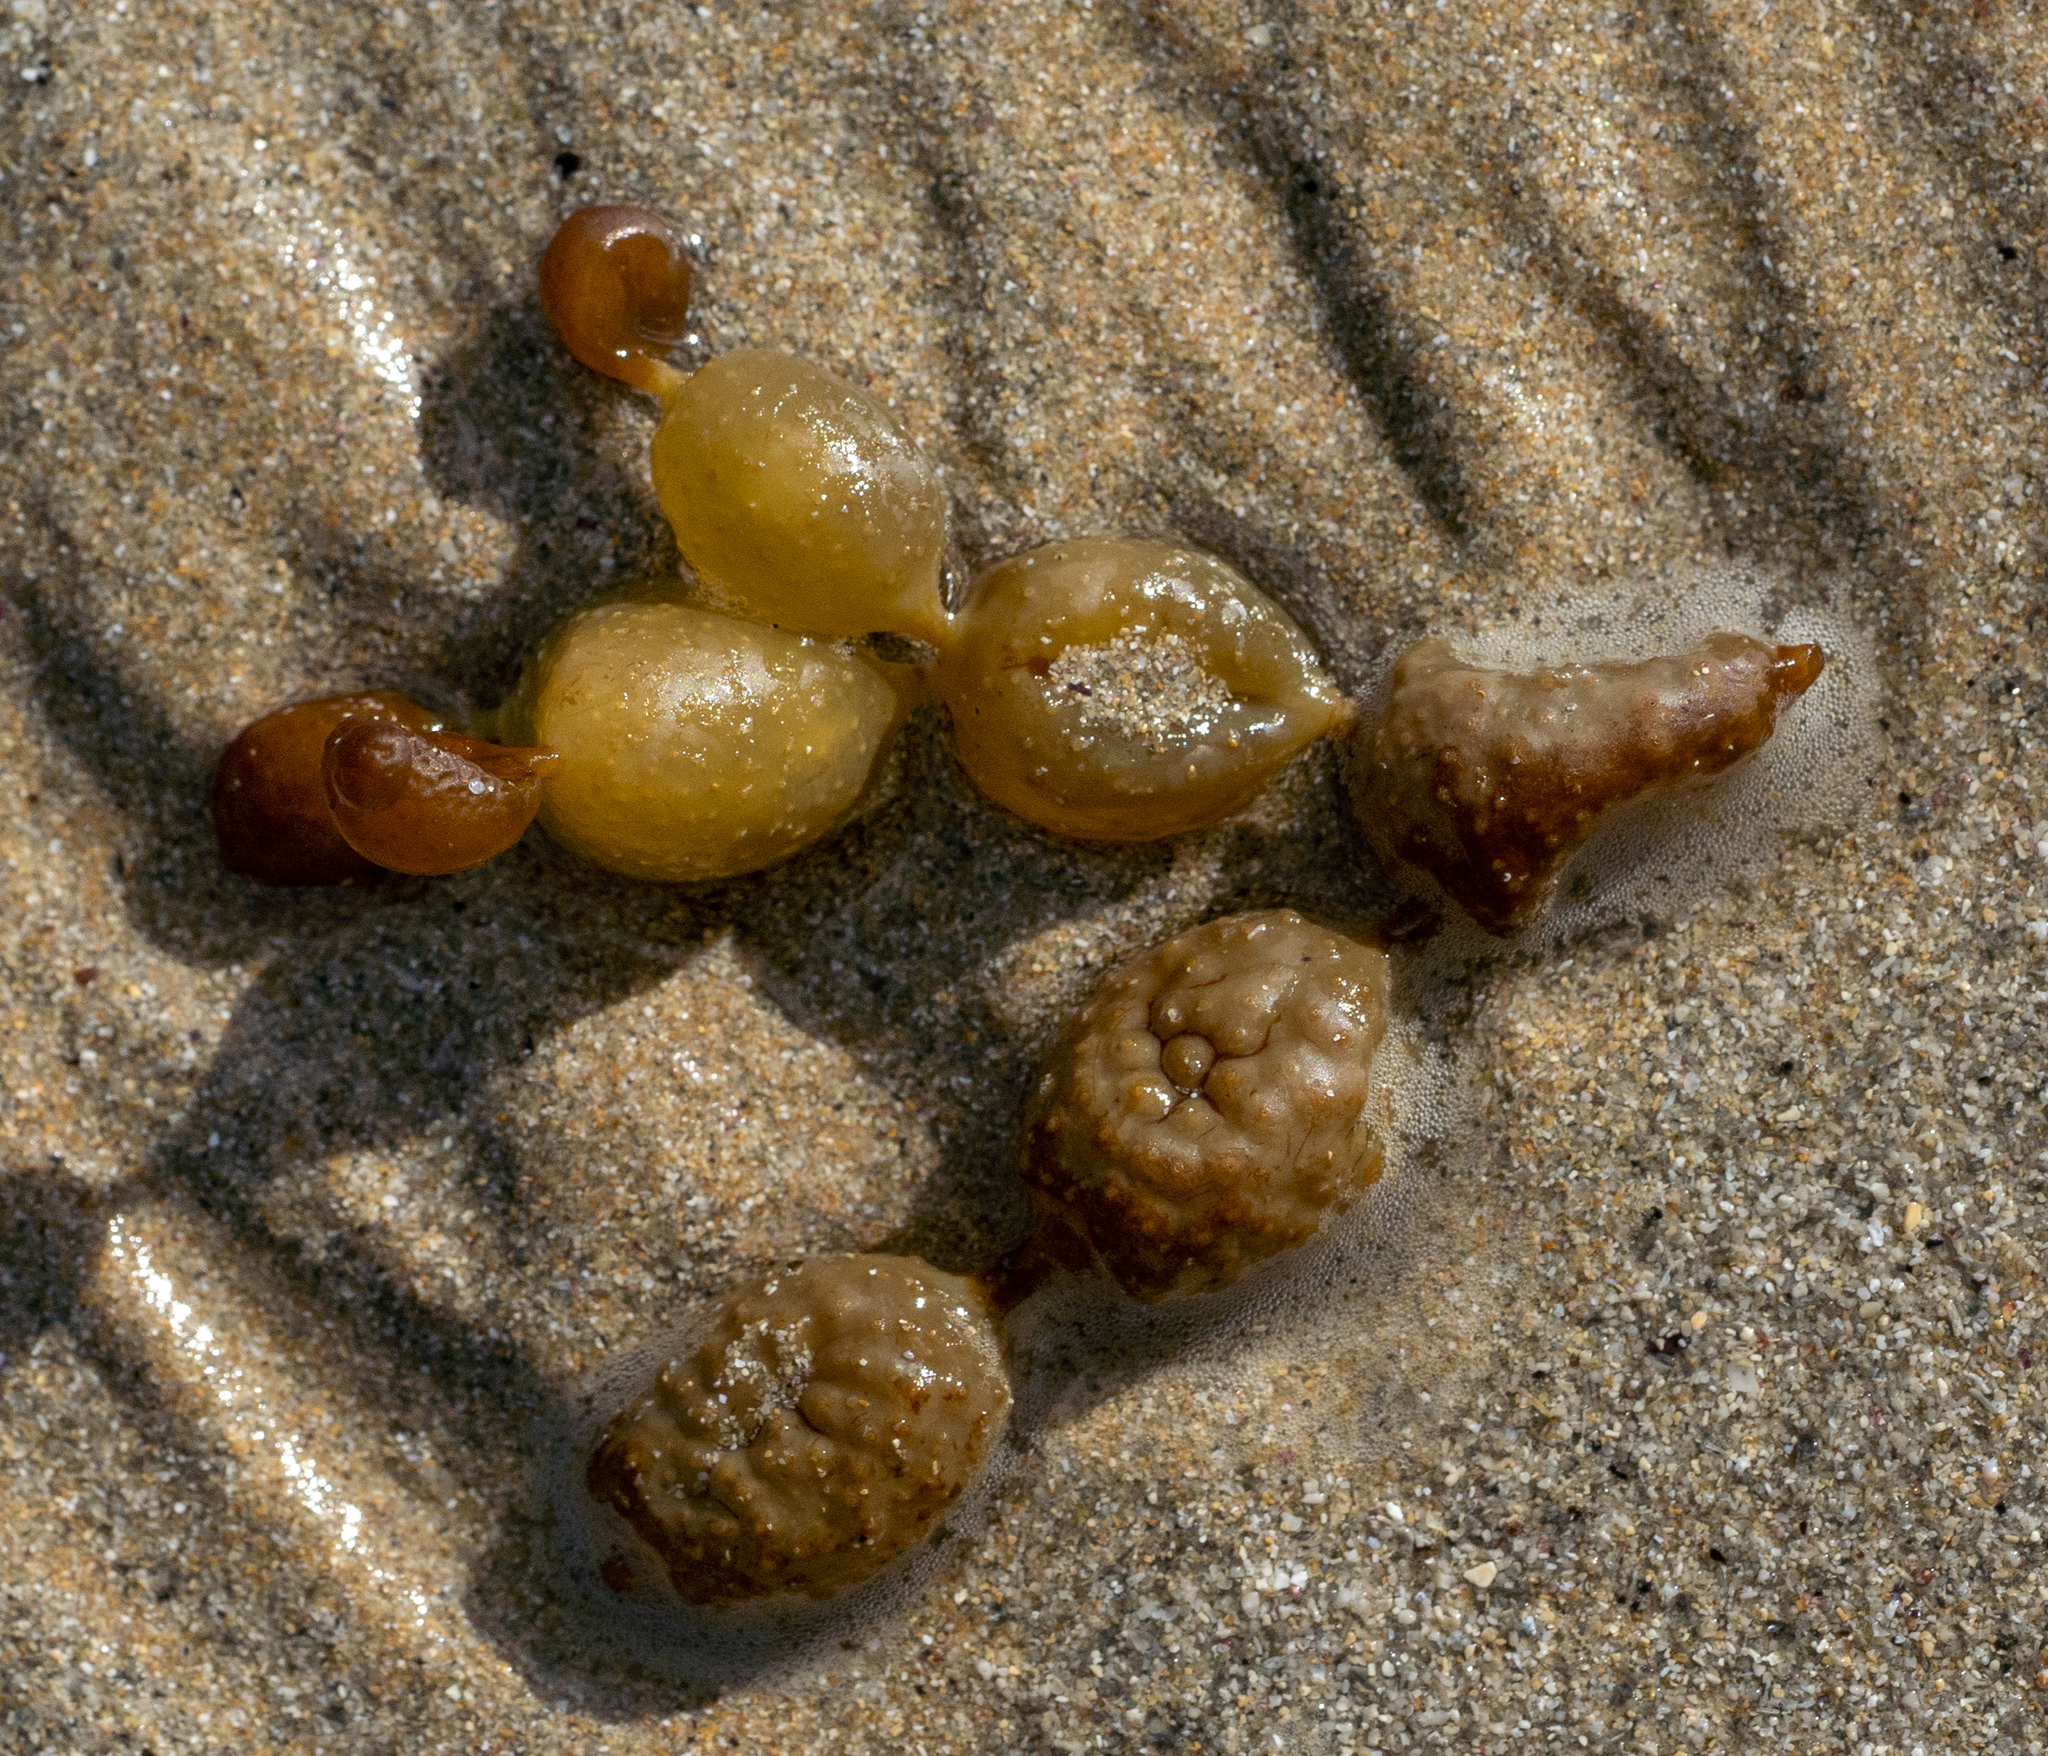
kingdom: Chromista
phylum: Ochrophyta
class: Phaeophyceae
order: Fucales
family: Hormosiraceae
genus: Hormosira
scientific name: Hormosira banksii
